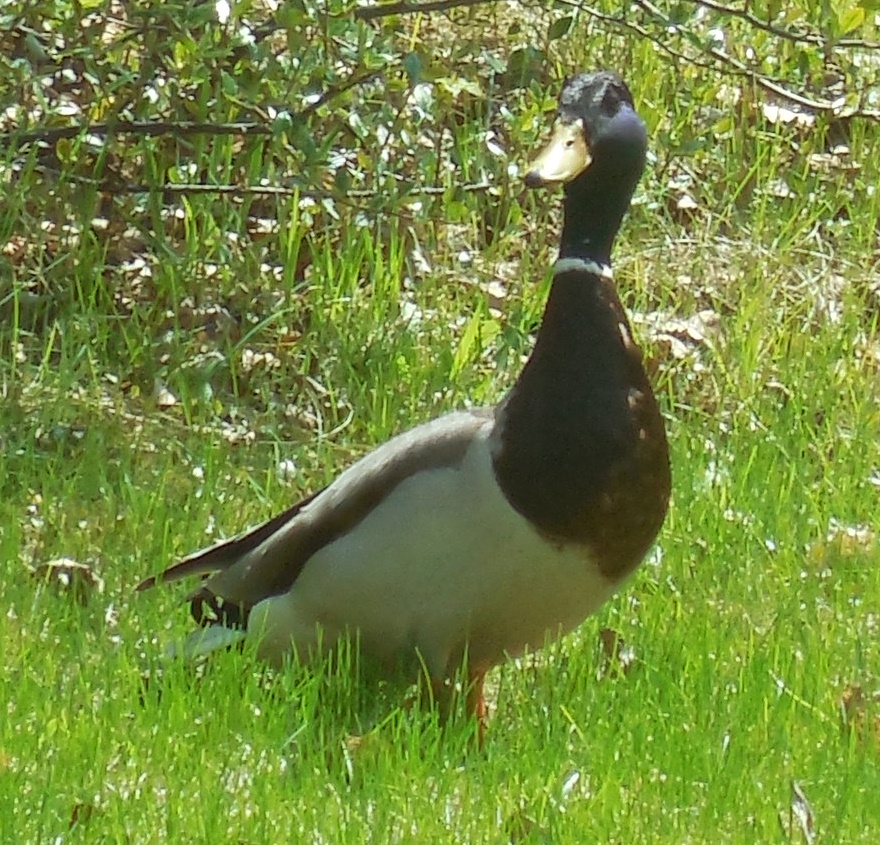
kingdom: Animalia
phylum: Chordata
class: Aves
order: Anseriformes
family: Anatidae
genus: Anas
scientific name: Anas platyrhynchos
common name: Mallard
